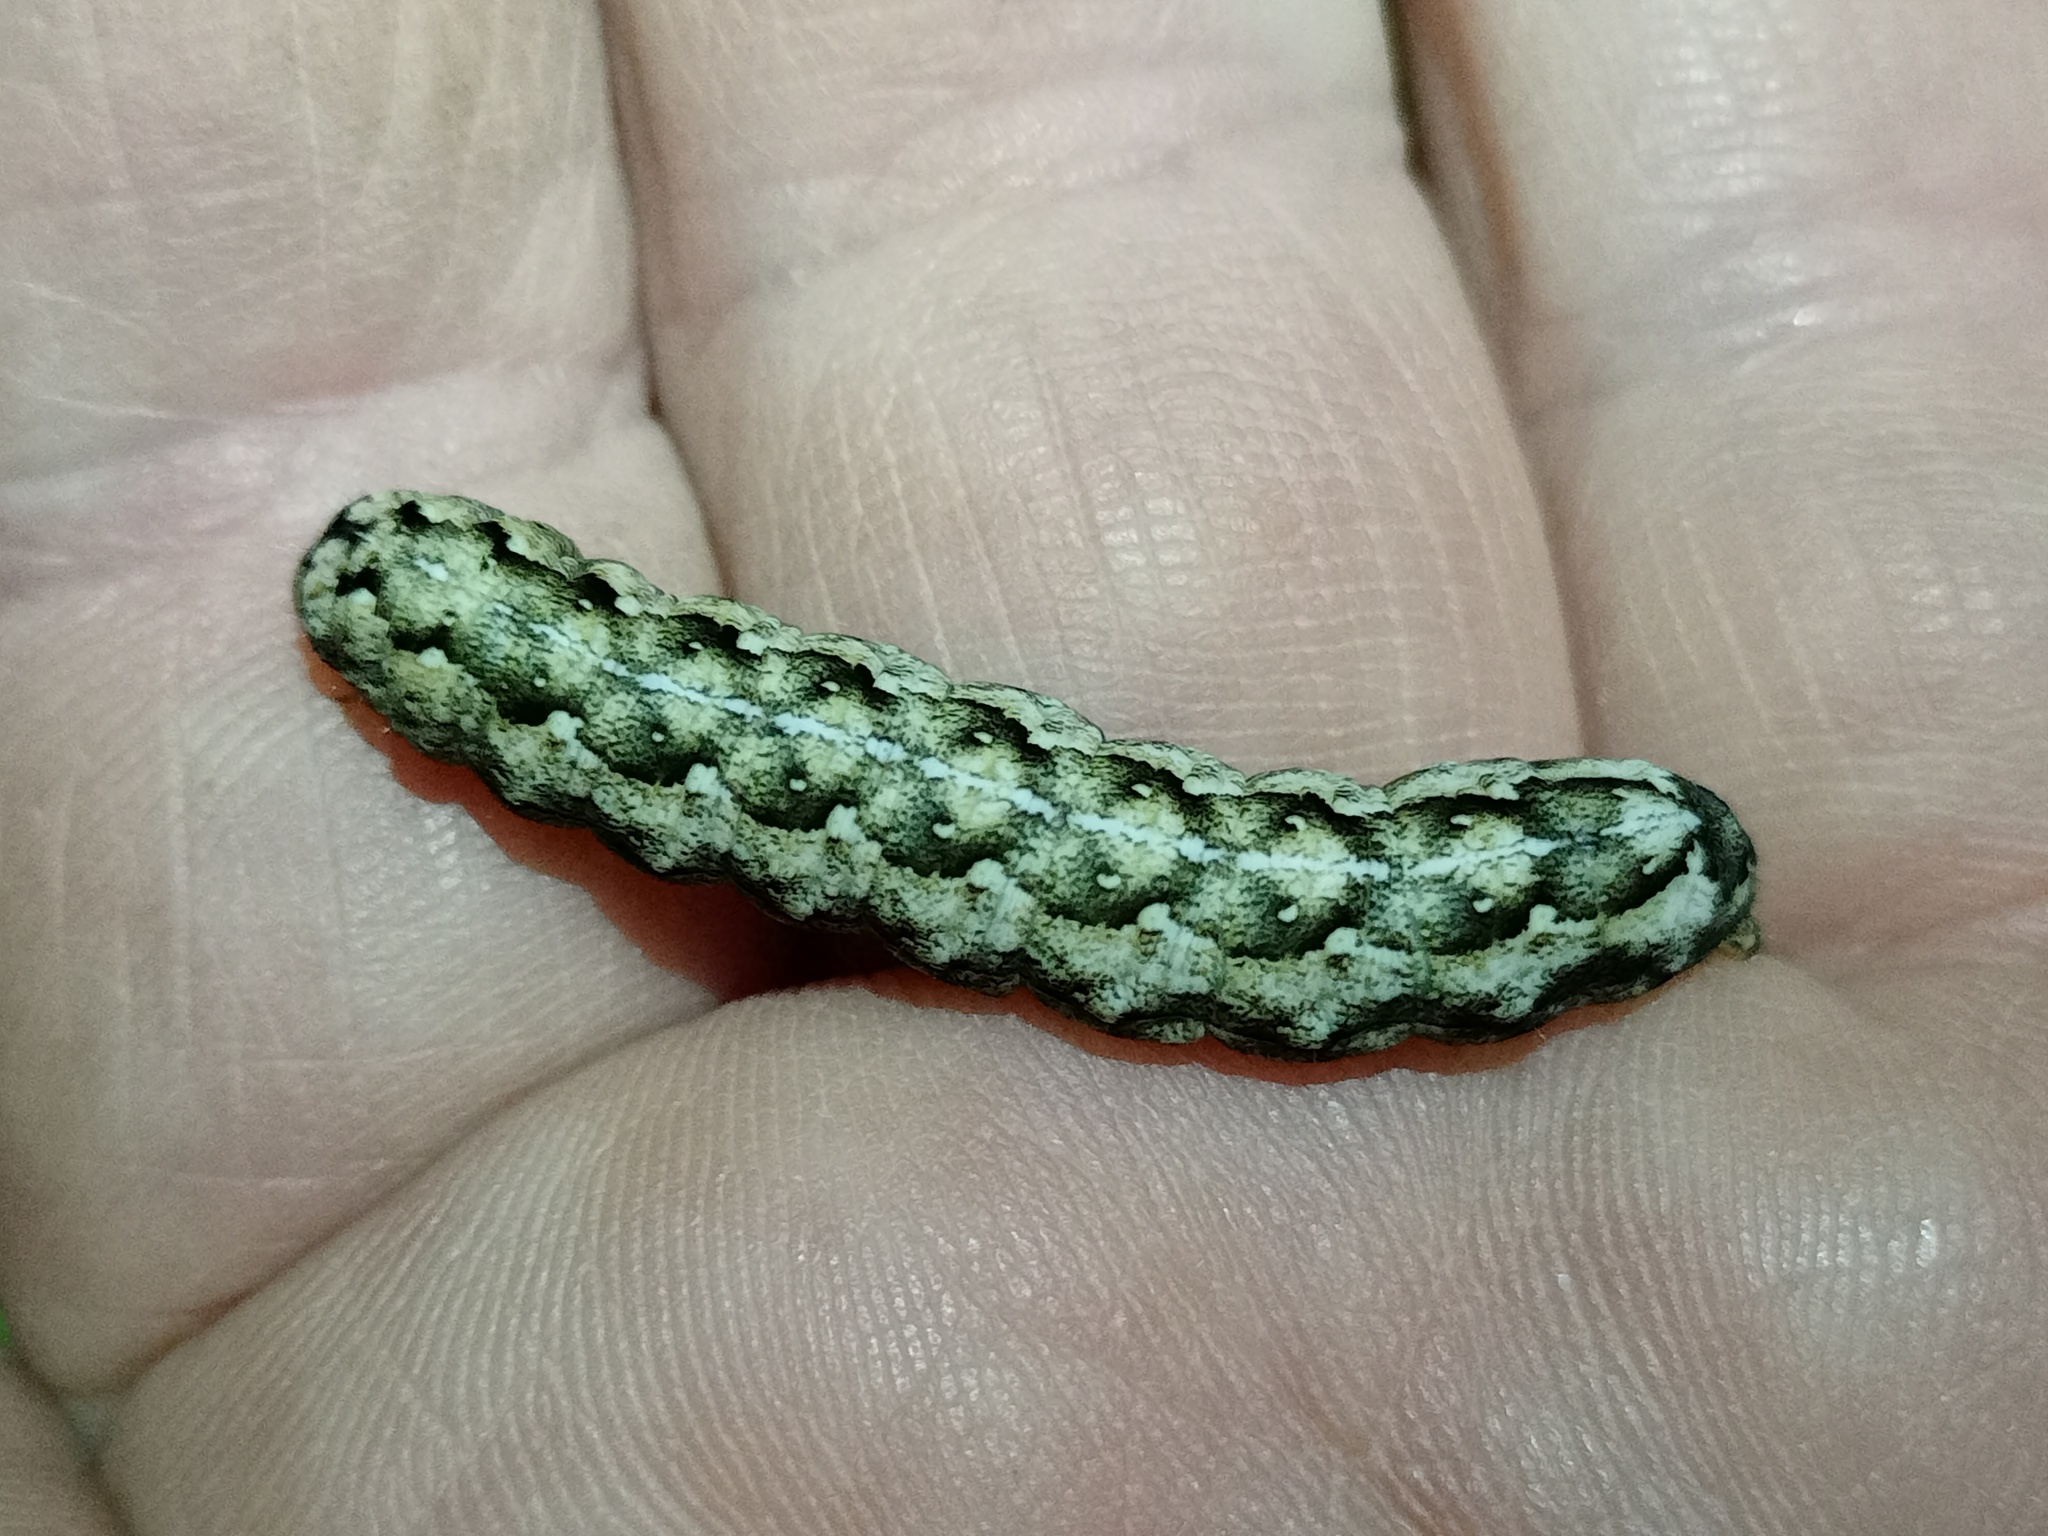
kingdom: Animalia
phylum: Arthropoda
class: Insecta
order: Lepidoptera
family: Noctuidae
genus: Griposia
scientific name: Griposia aprilina
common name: Merveille du jour
